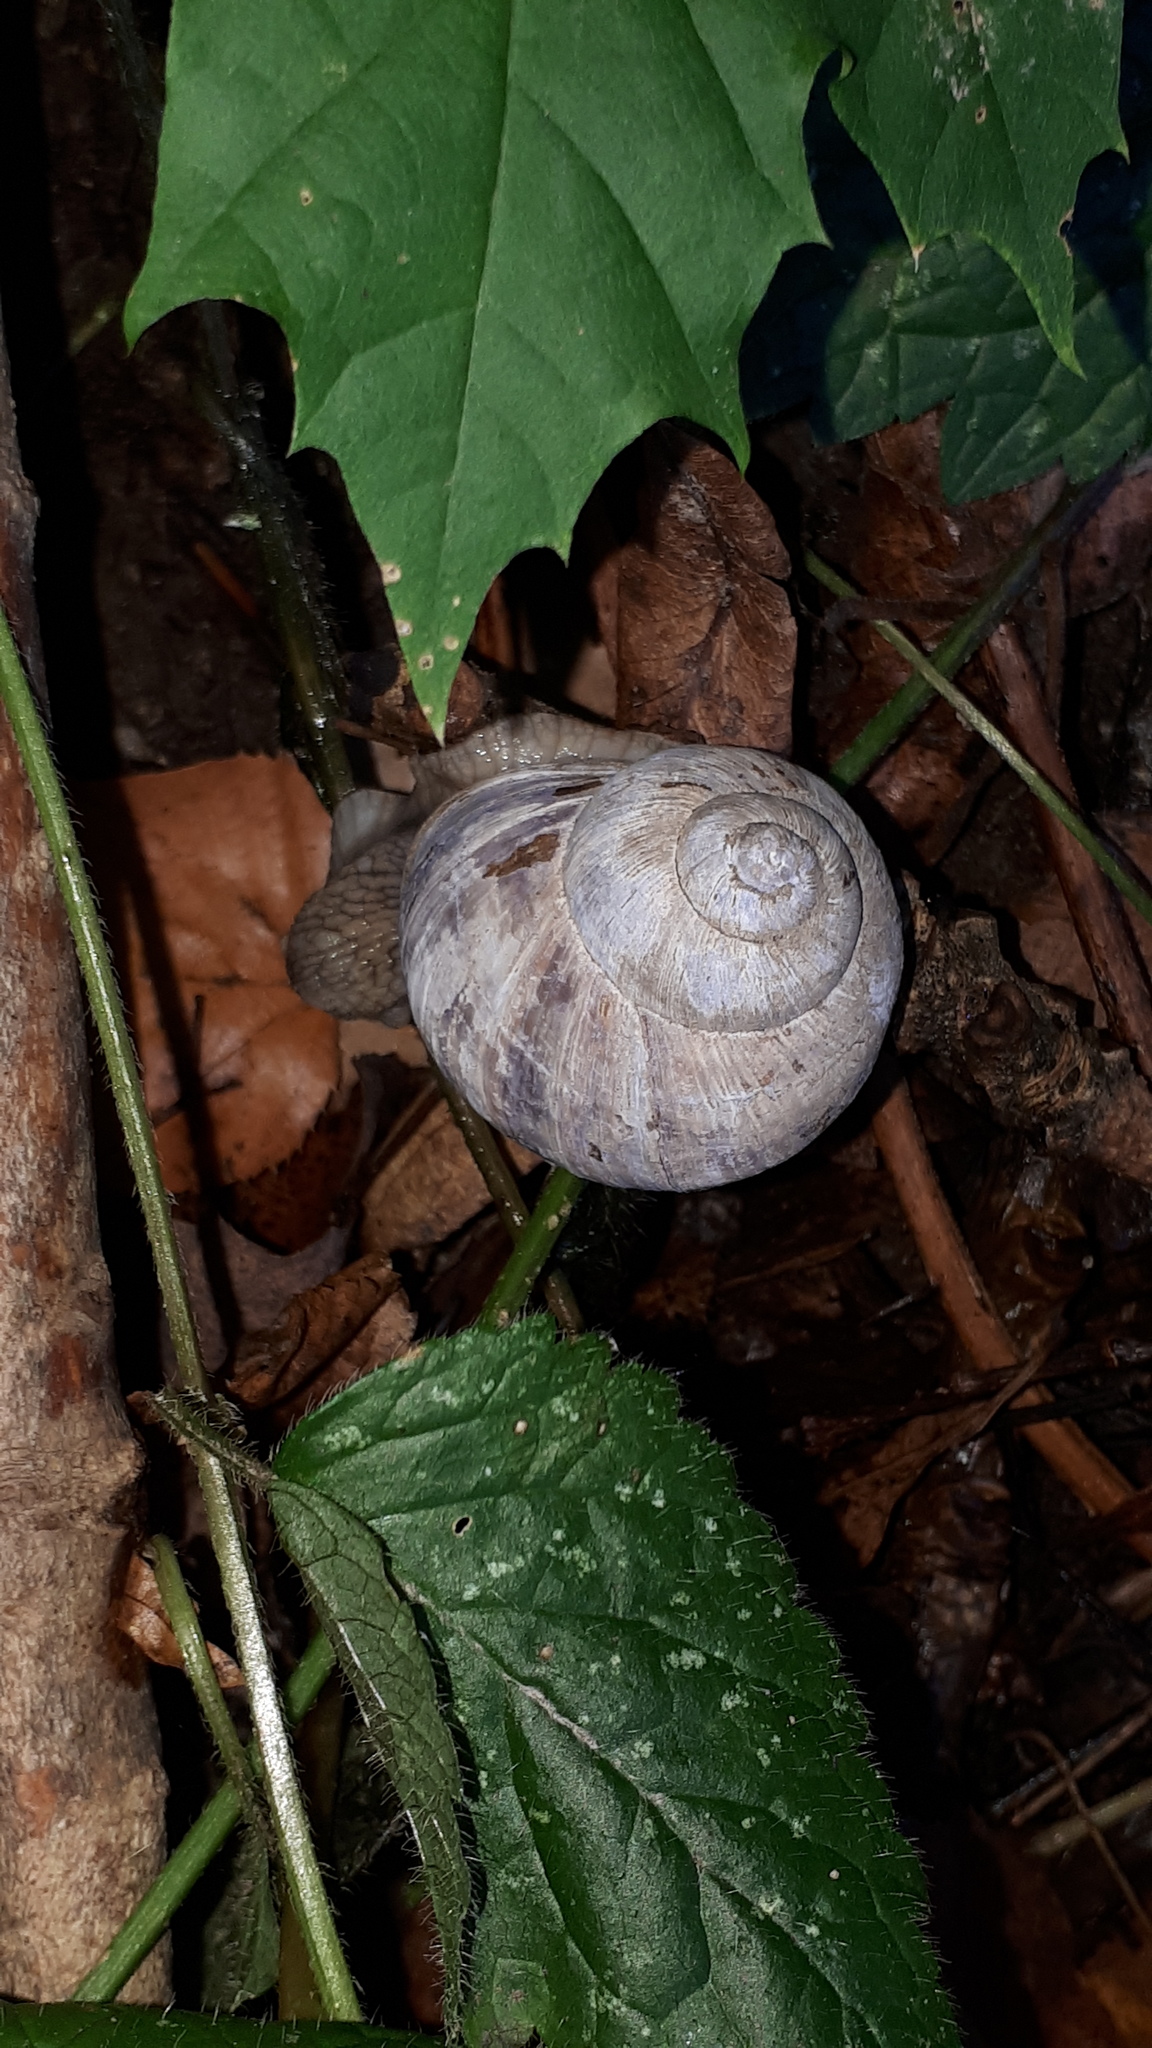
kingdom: Animalia
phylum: Mollusca
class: Gastropoda
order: Stylommatophora
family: Helicidae
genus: Helix
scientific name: Helix pomatia
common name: Roman snail
